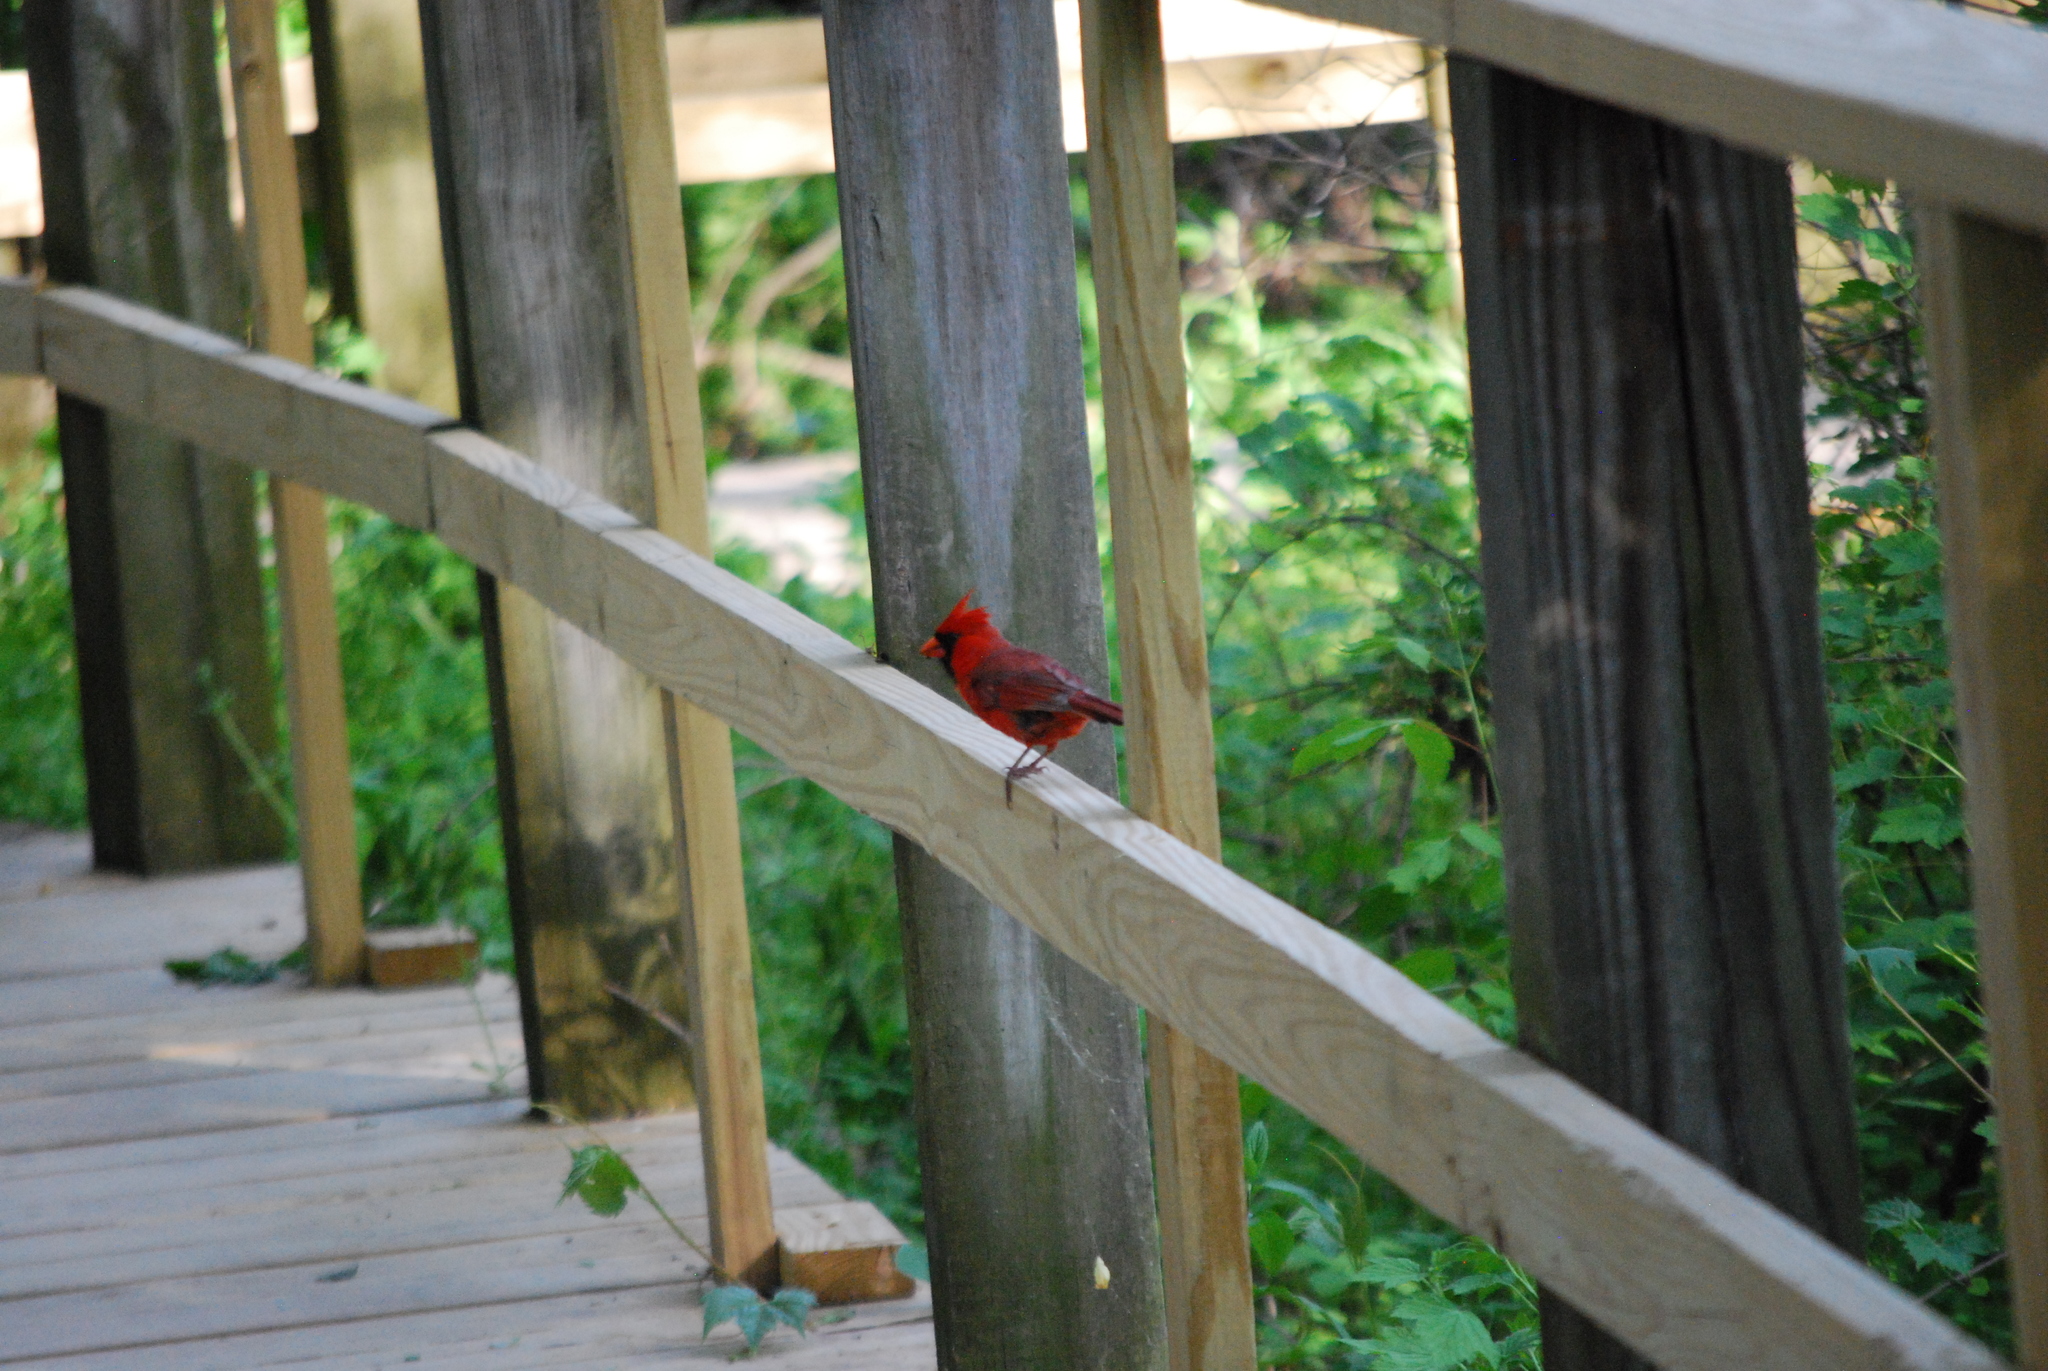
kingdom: Animalia
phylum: Chordata
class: Aves
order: Passeriformes
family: Cardinalidae
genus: Cardinalis
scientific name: Cardinalis cardinalis
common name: Northern cardinal
